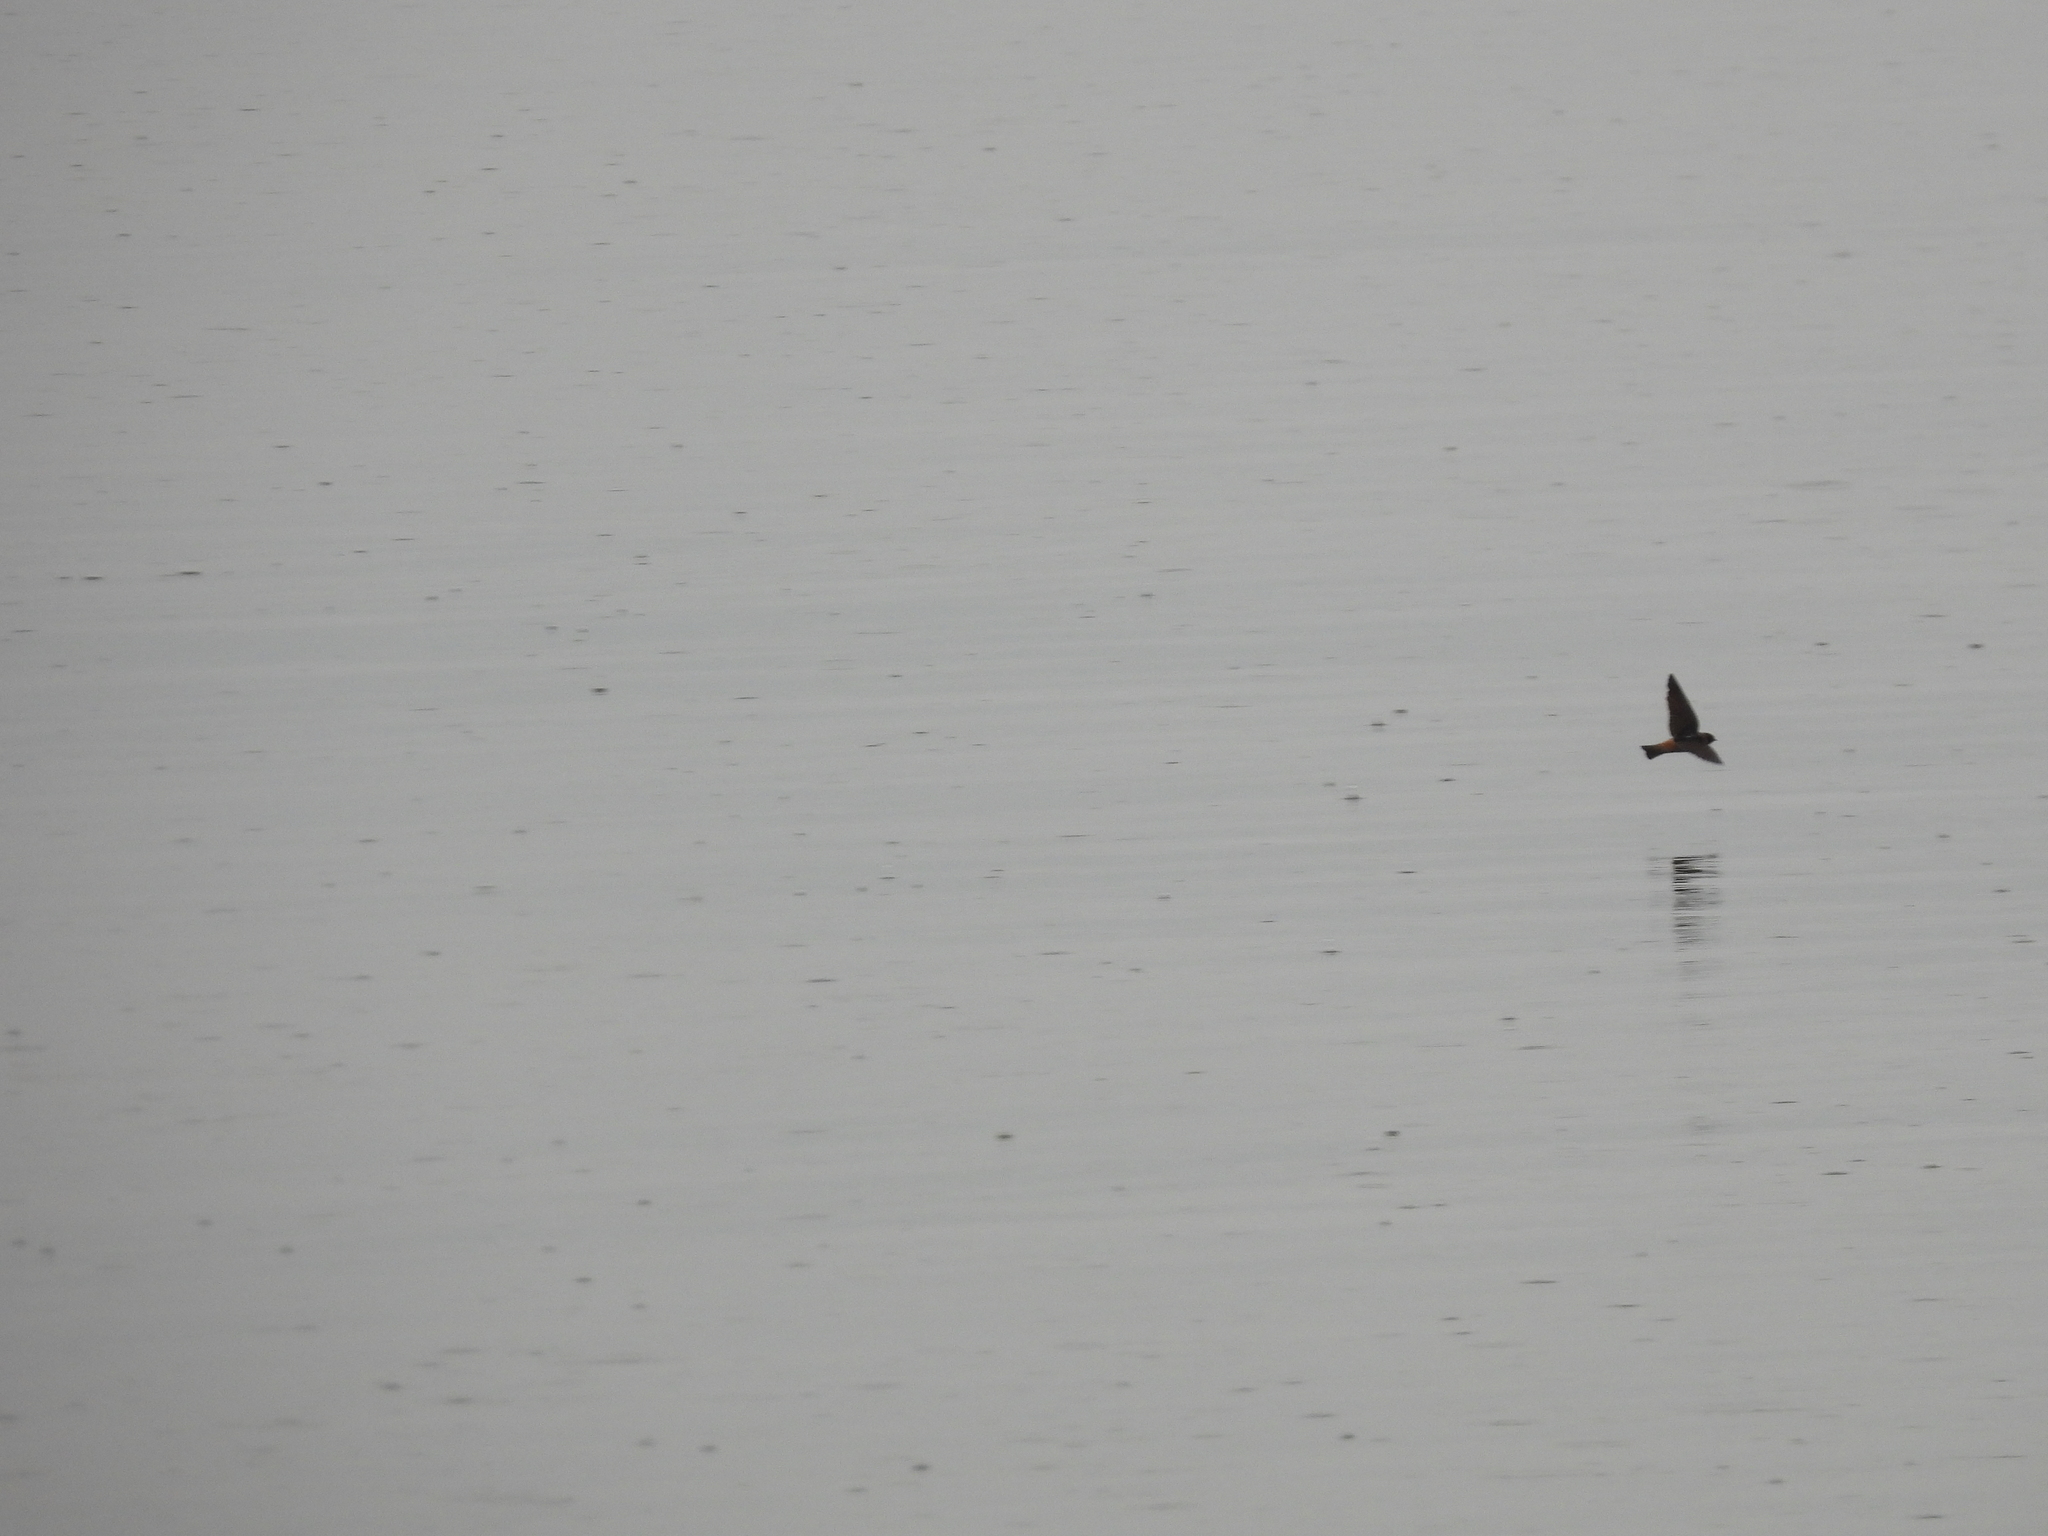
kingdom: Animalia
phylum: Chordata
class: Aves
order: Passeriformes
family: Hirundinidae
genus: Petrochelidon
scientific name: Petrochelidon pyrrhonota
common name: American cliff swallow
